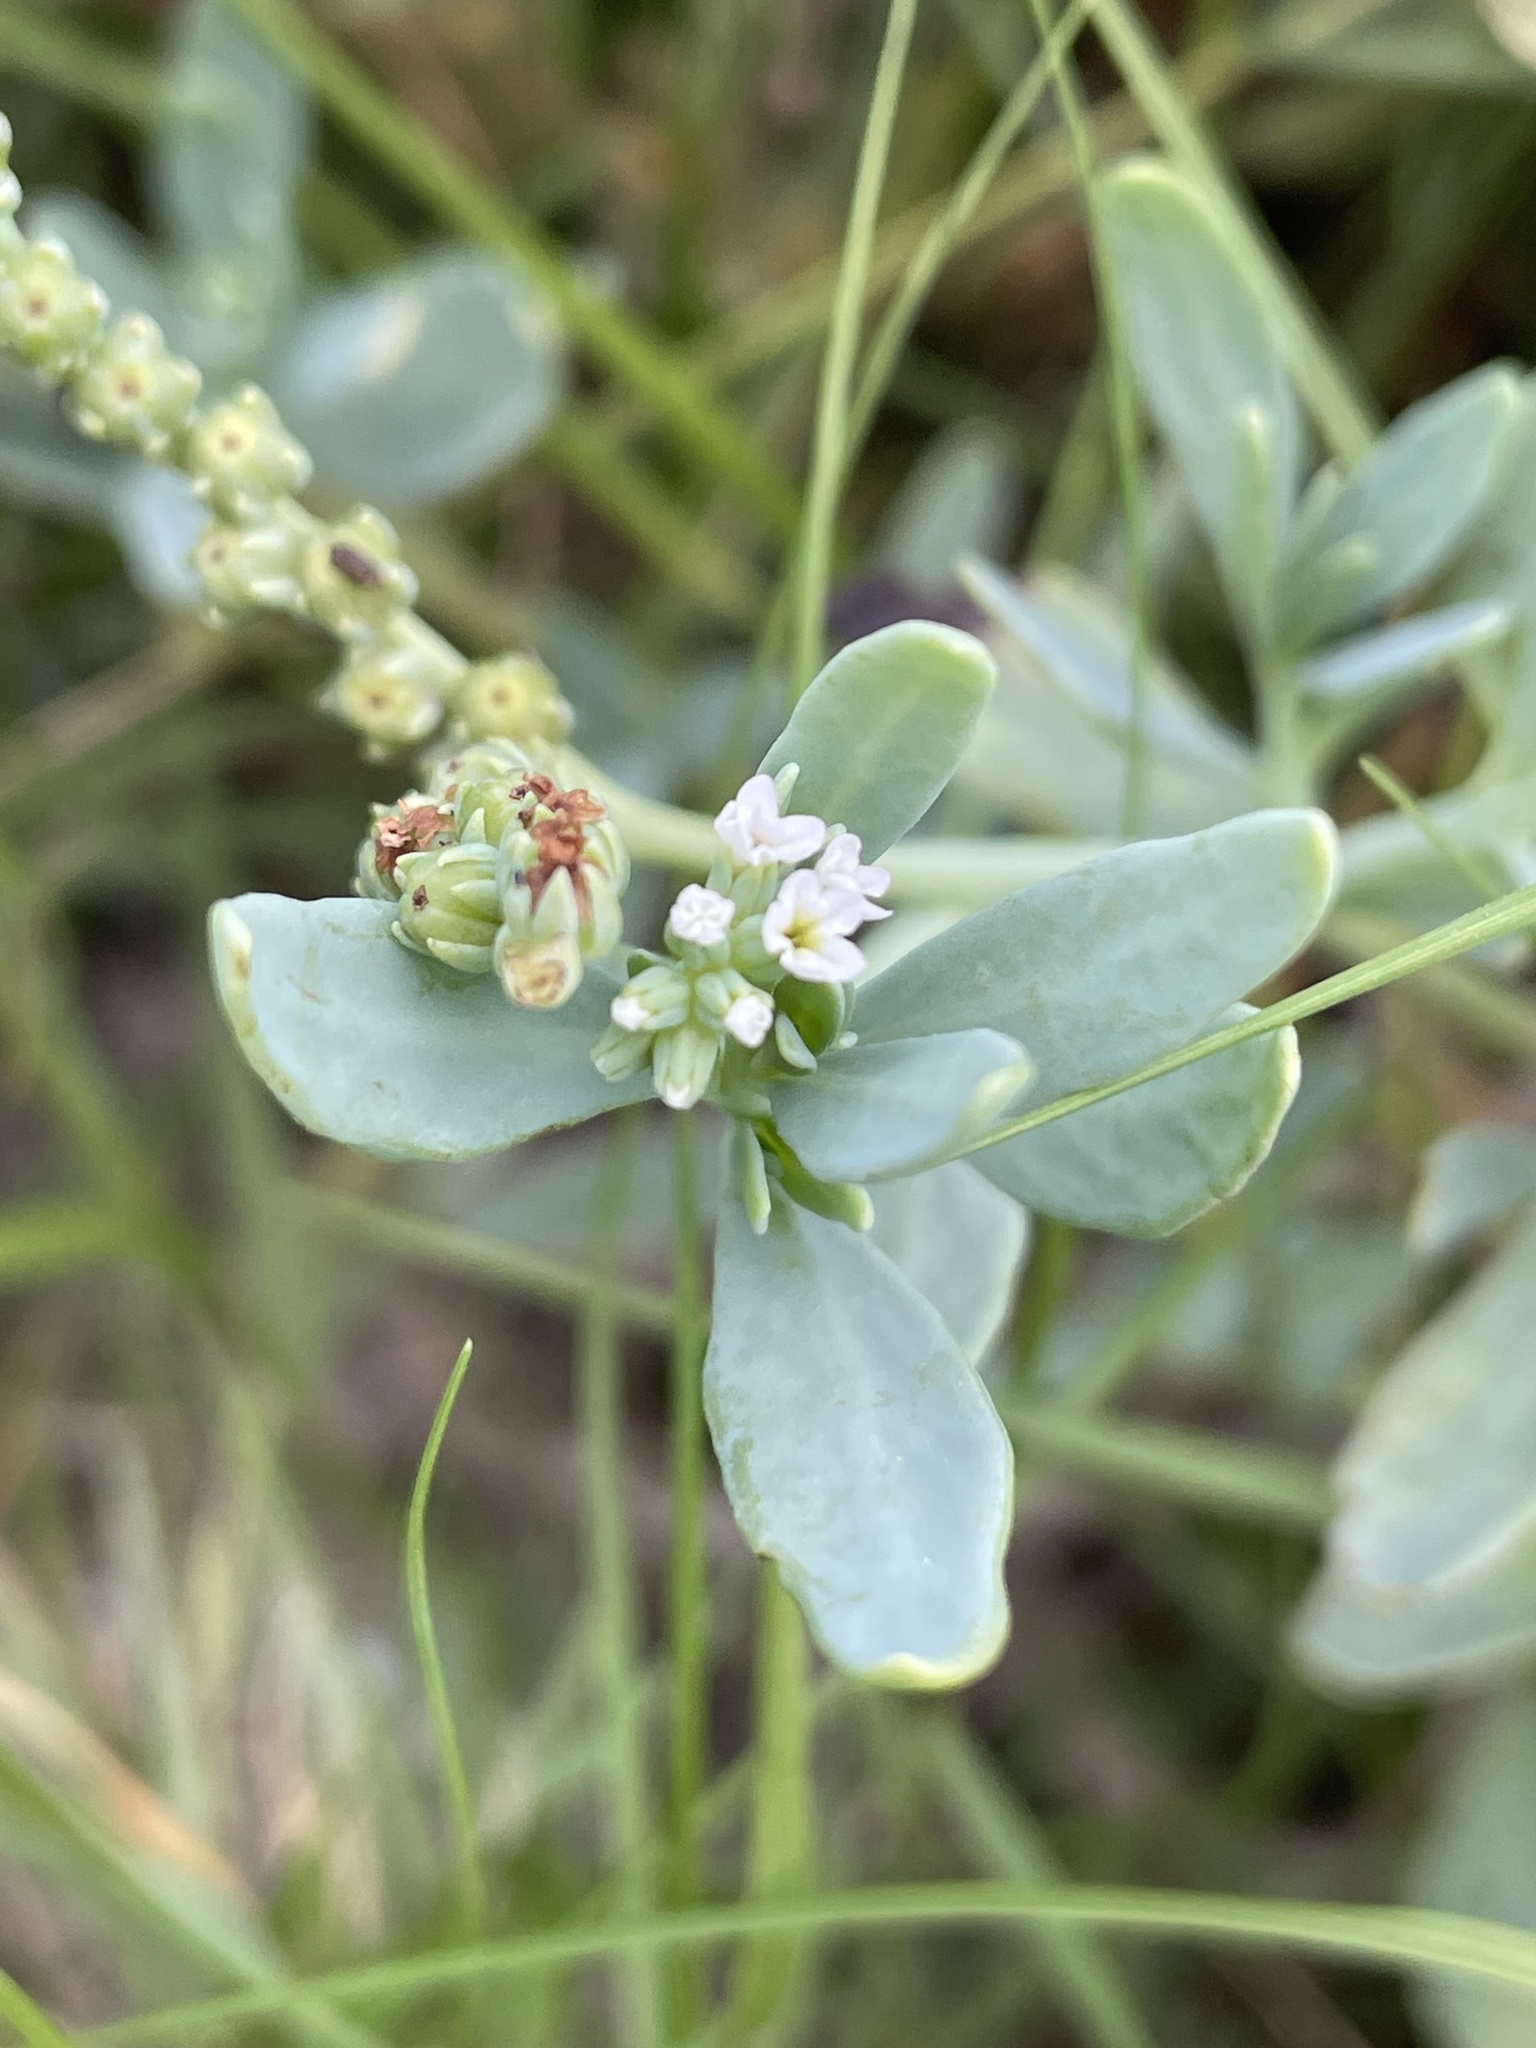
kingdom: Plantae
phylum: Tracheophyta
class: Magnoliopsida
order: Boraginales
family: Heliotropiaceae
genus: Heliotropium
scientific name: Heliotropium curassavicum
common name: Seaside heliotrope
